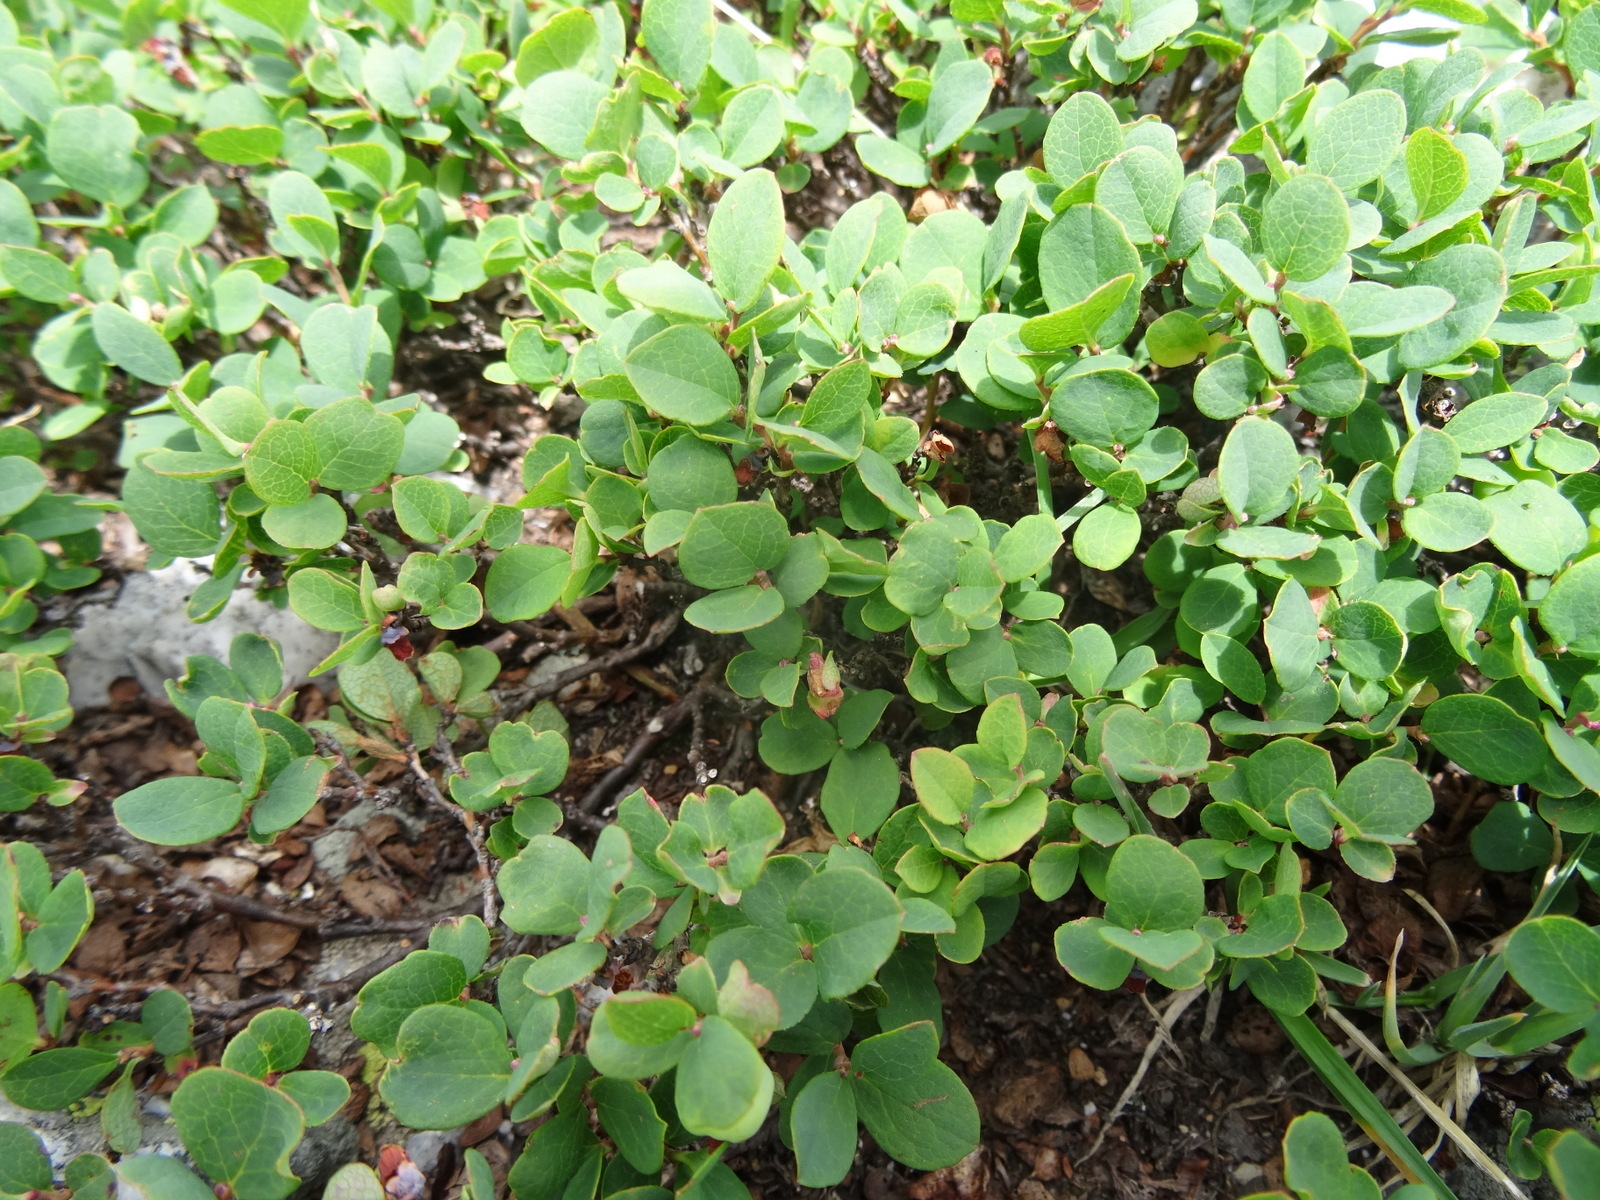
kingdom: Plantae
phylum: Tracheophyta
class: Magnoliopsida
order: Ericales
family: Ericaceae
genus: Vaccinium
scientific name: Vaccinium uliginosum
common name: Bog bilberry
